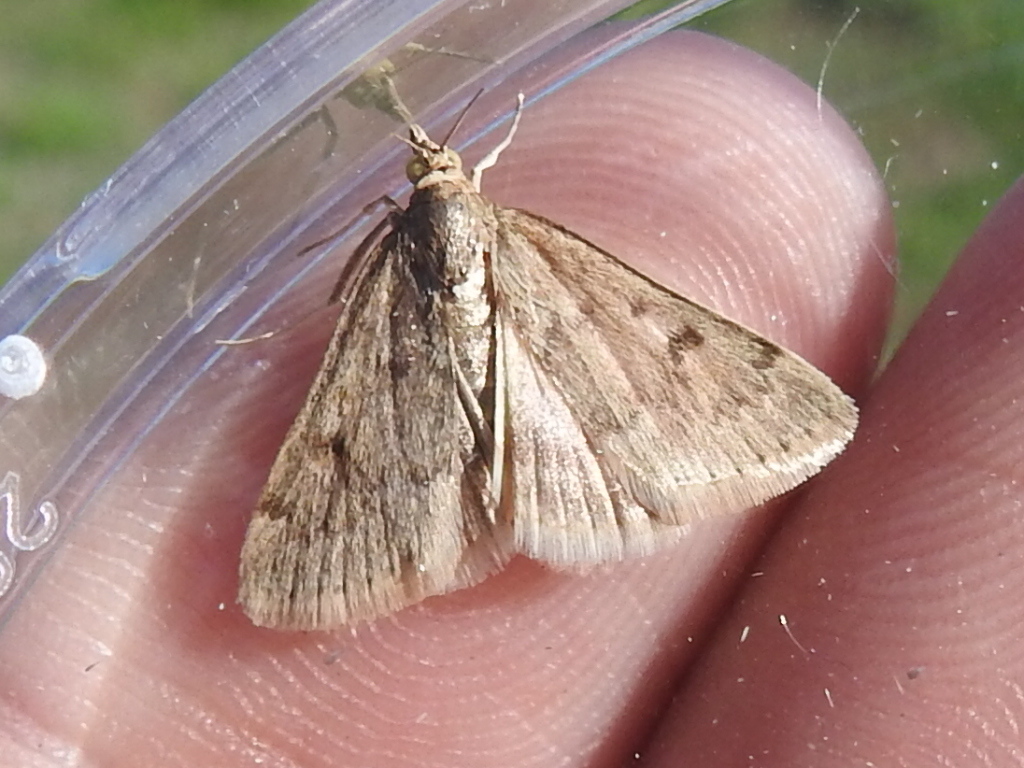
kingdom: Animalia
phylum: Arthropoda
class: Insecta
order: Lepidoptera
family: Crambidae
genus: Udea
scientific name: Udea rubigalis
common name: Celery leaftier moth
